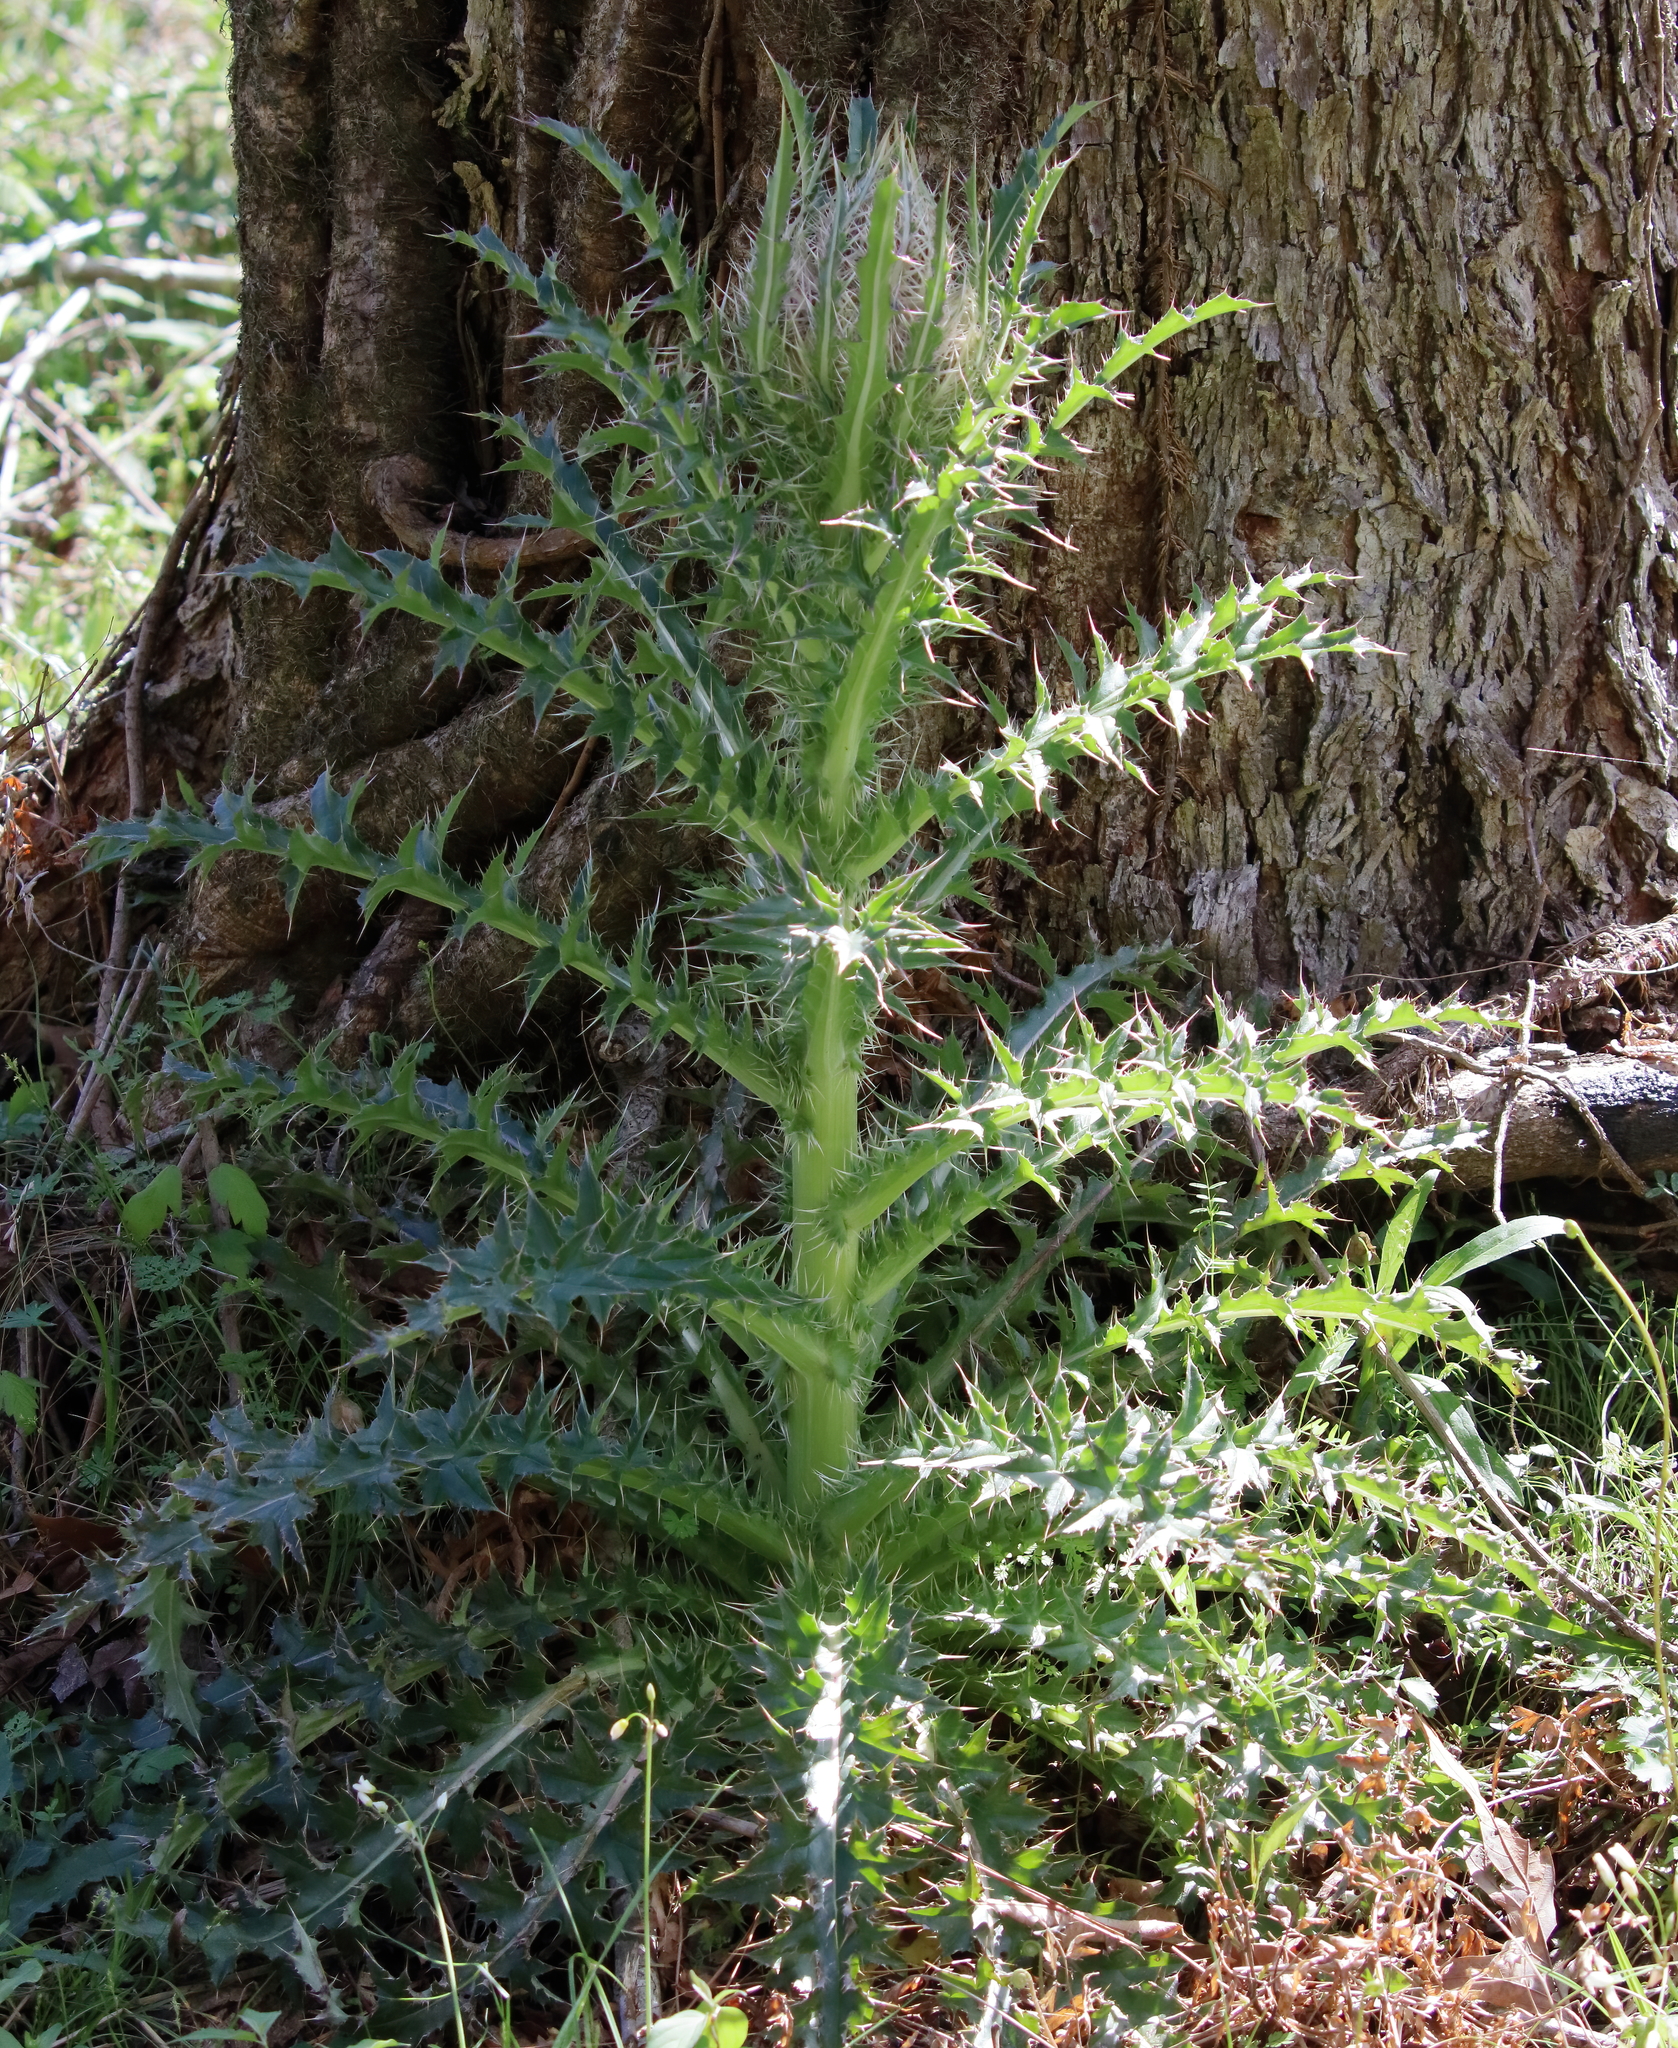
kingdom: Plantae
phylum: Tracheophyta
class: Magnoliopsida
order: Asterales
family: Asteraceae
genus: Cirsium
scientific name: Cirsium horridulum
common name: Bristly thistle
